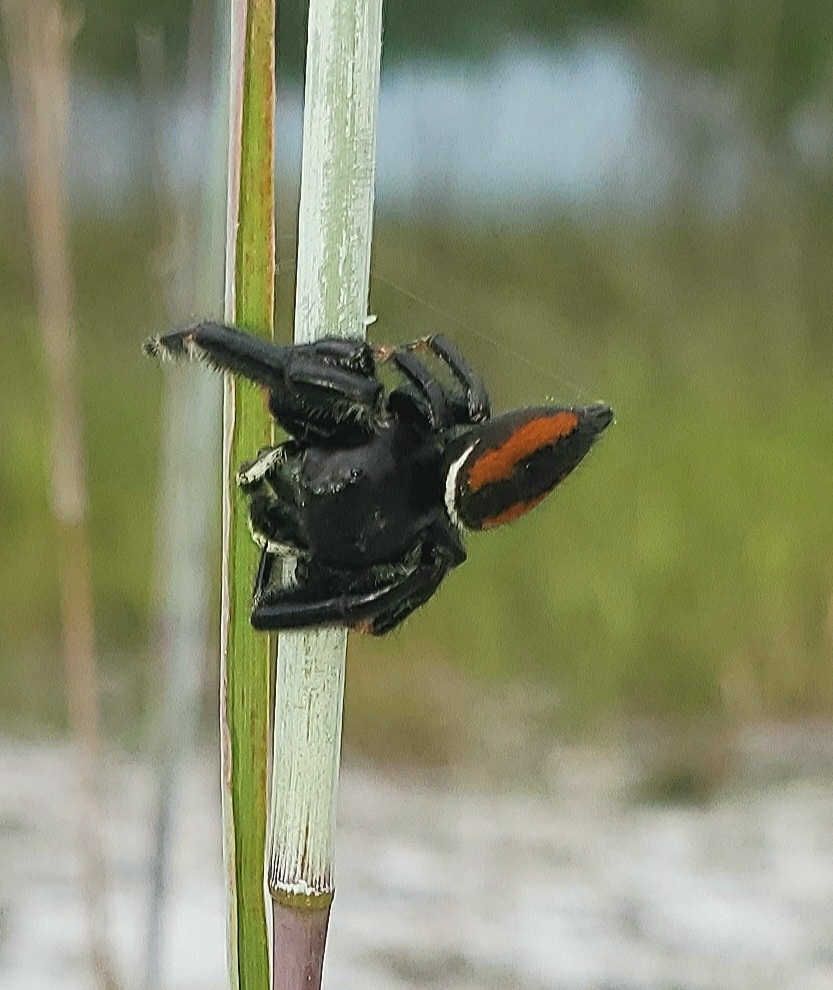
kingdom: Animalia
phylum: Arthropoda
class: Arachnida
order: Araneae
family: Salticidae
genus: Phidippus
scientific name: Phidippus clarus
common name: Brilliant jumping spider
